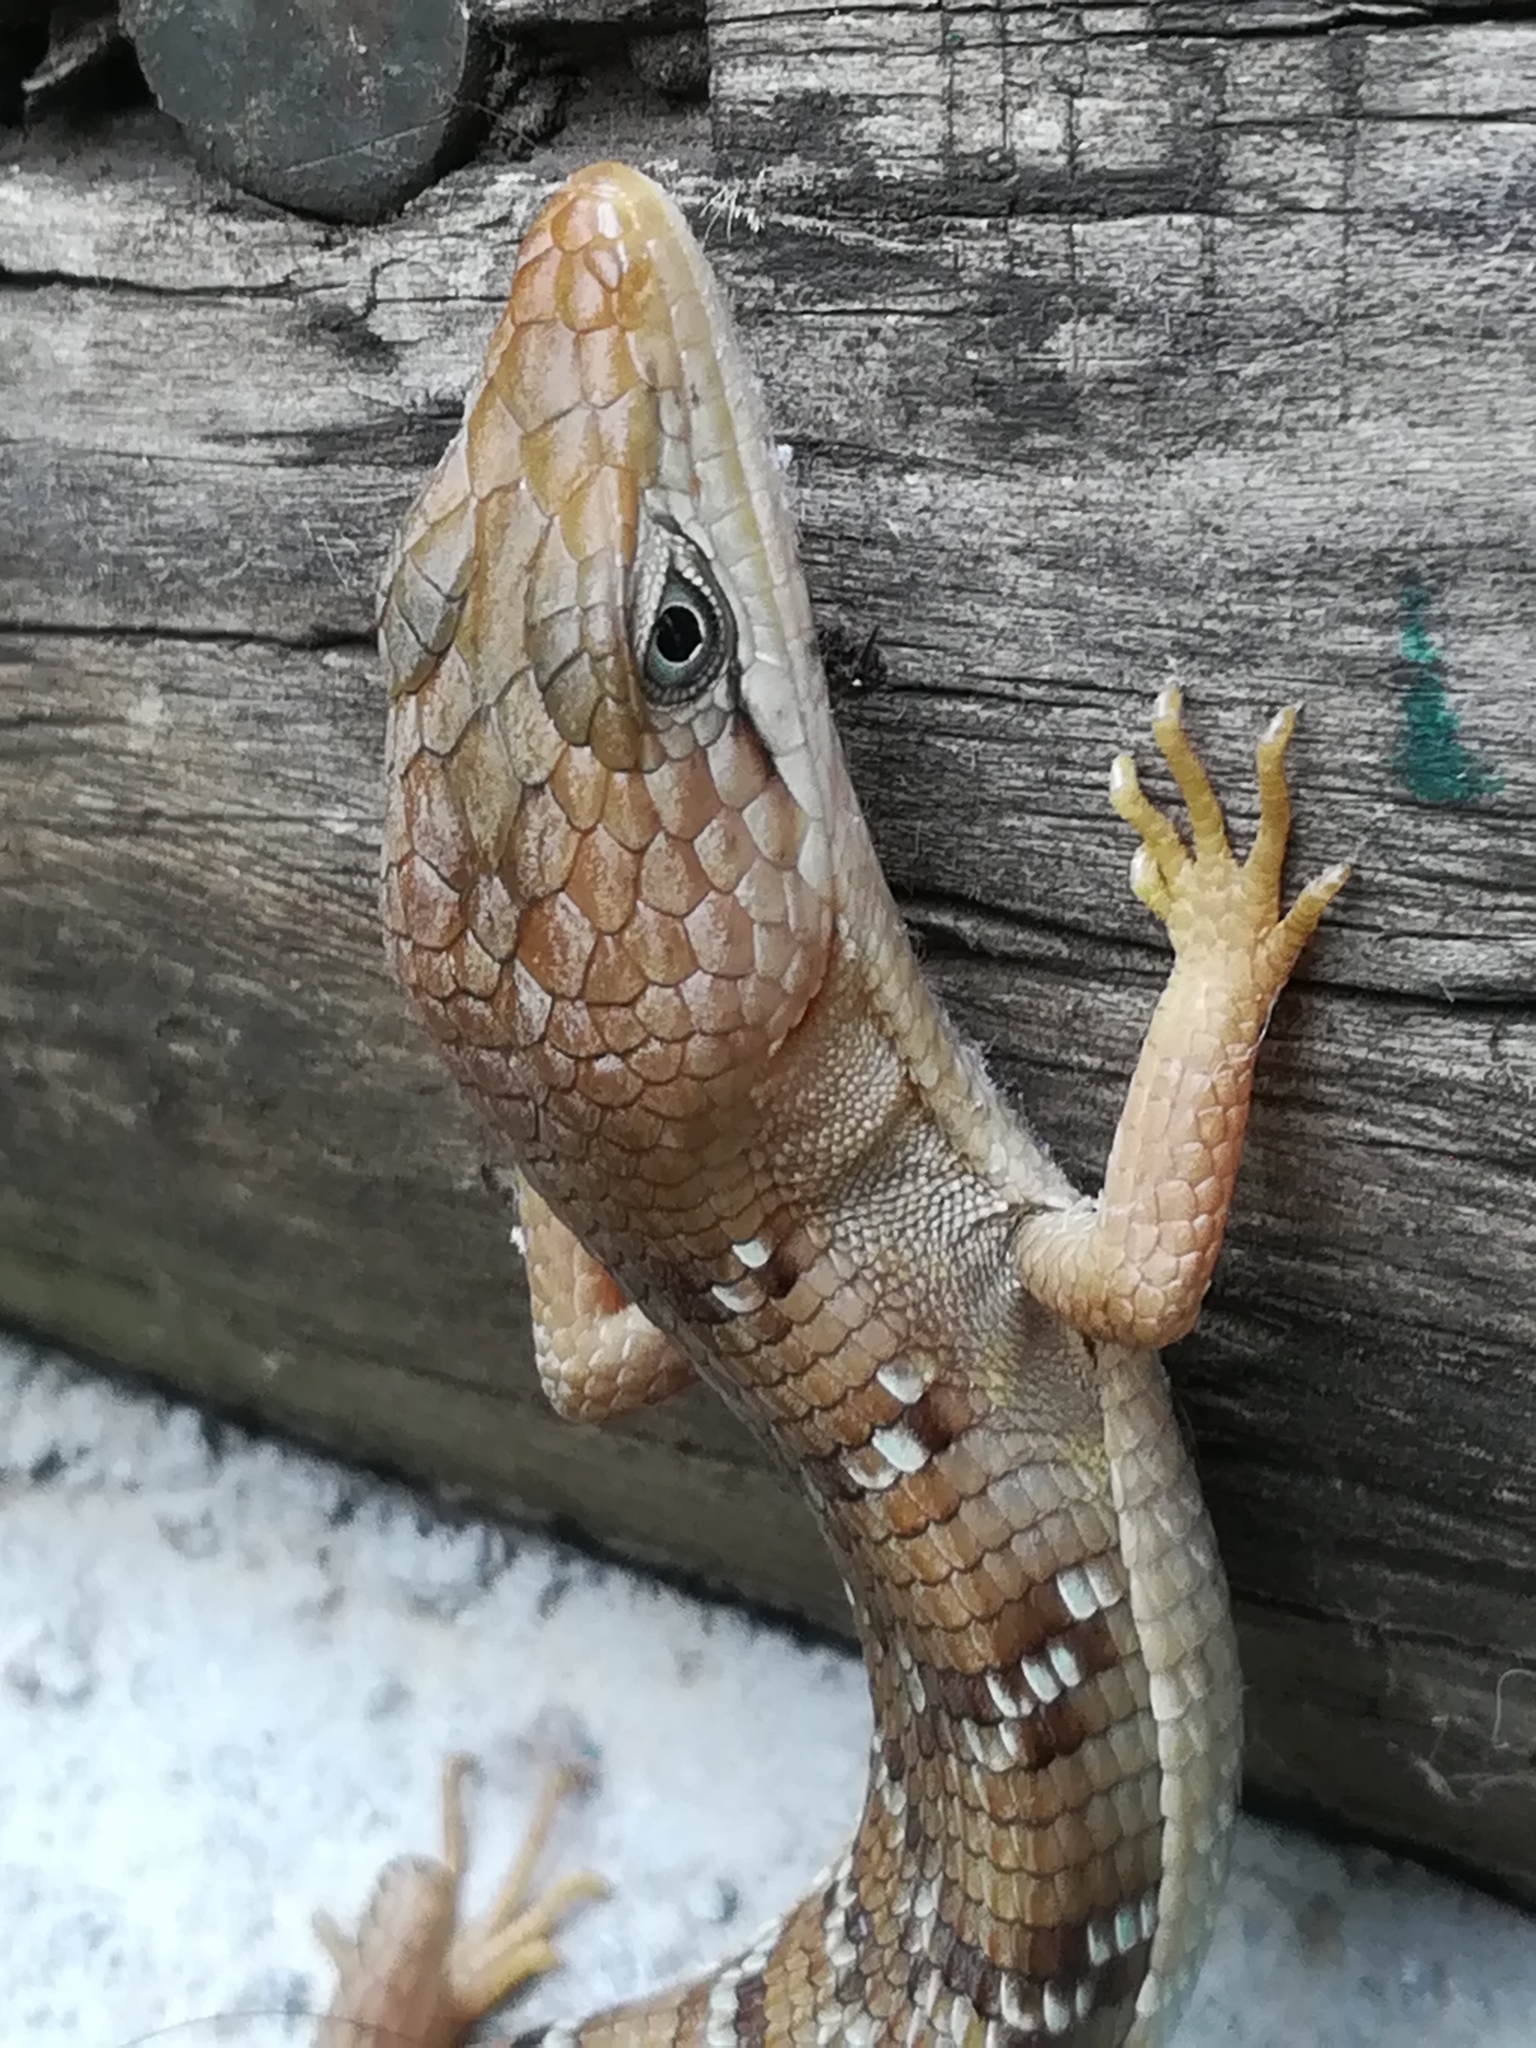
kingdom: Animalia
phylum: Chordata
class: Squamata
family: Anguidae
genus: Gerrhonotus
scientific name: Gerrhonotus infernalis
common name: Texas alligator lizard
